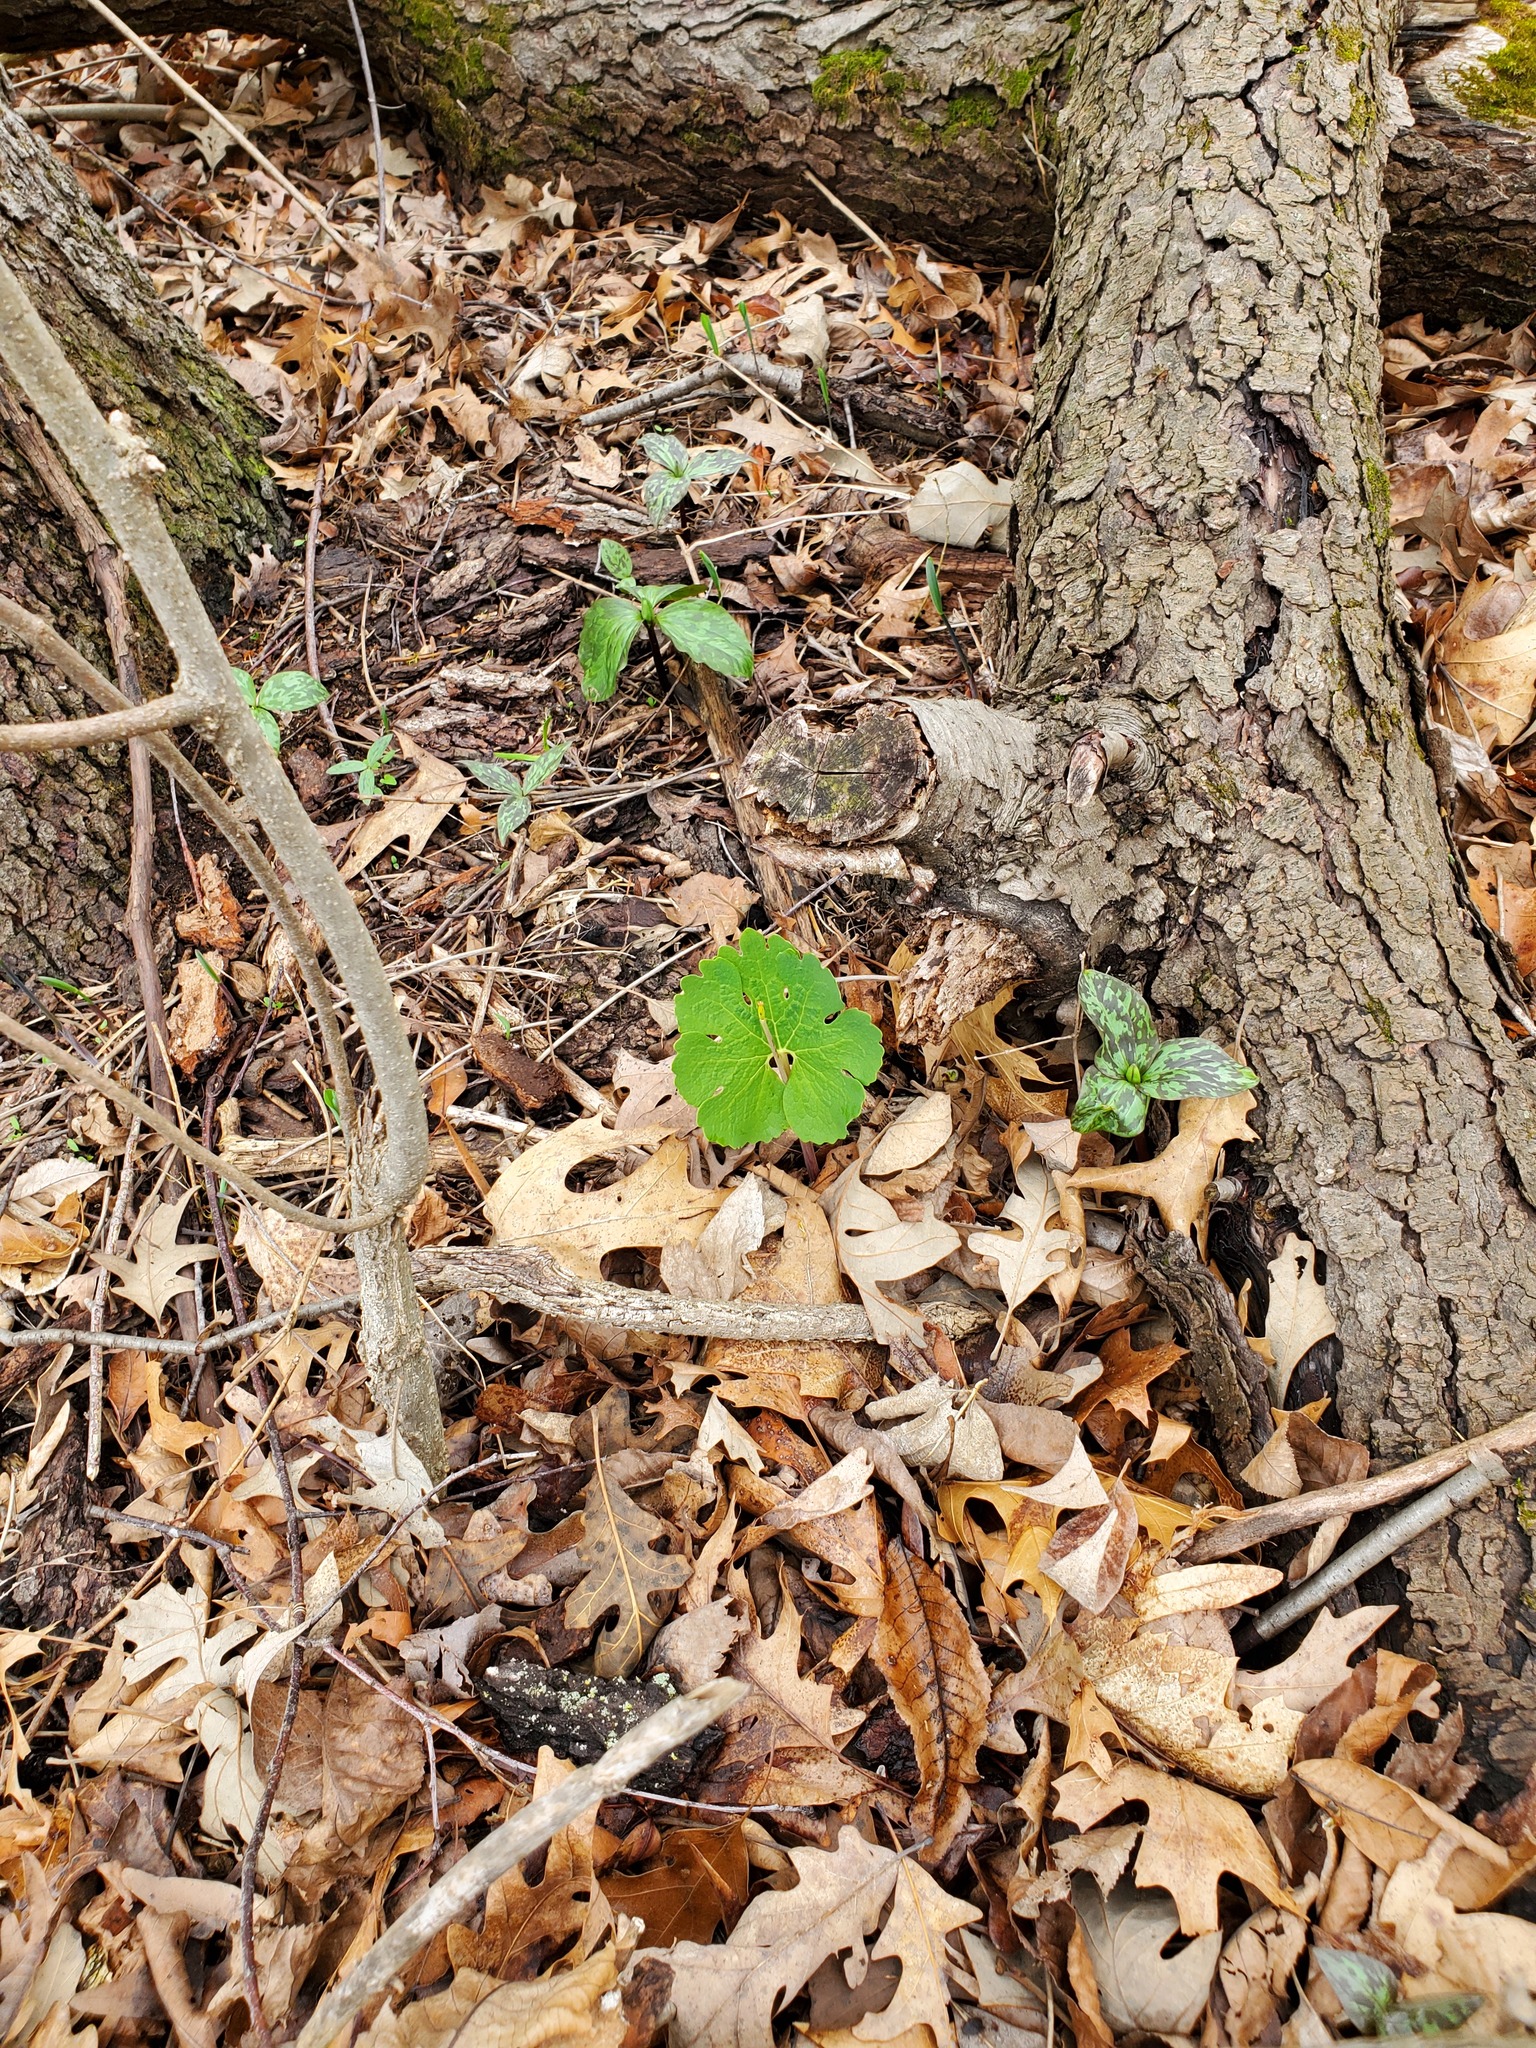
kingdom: Plantae
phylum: Tracheophyta
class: Magnoliopsida
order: Ranunculales
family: Papaveraceae
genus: Sanguinaria
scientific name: Sanguinaria canadensis
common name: Bloodroot
